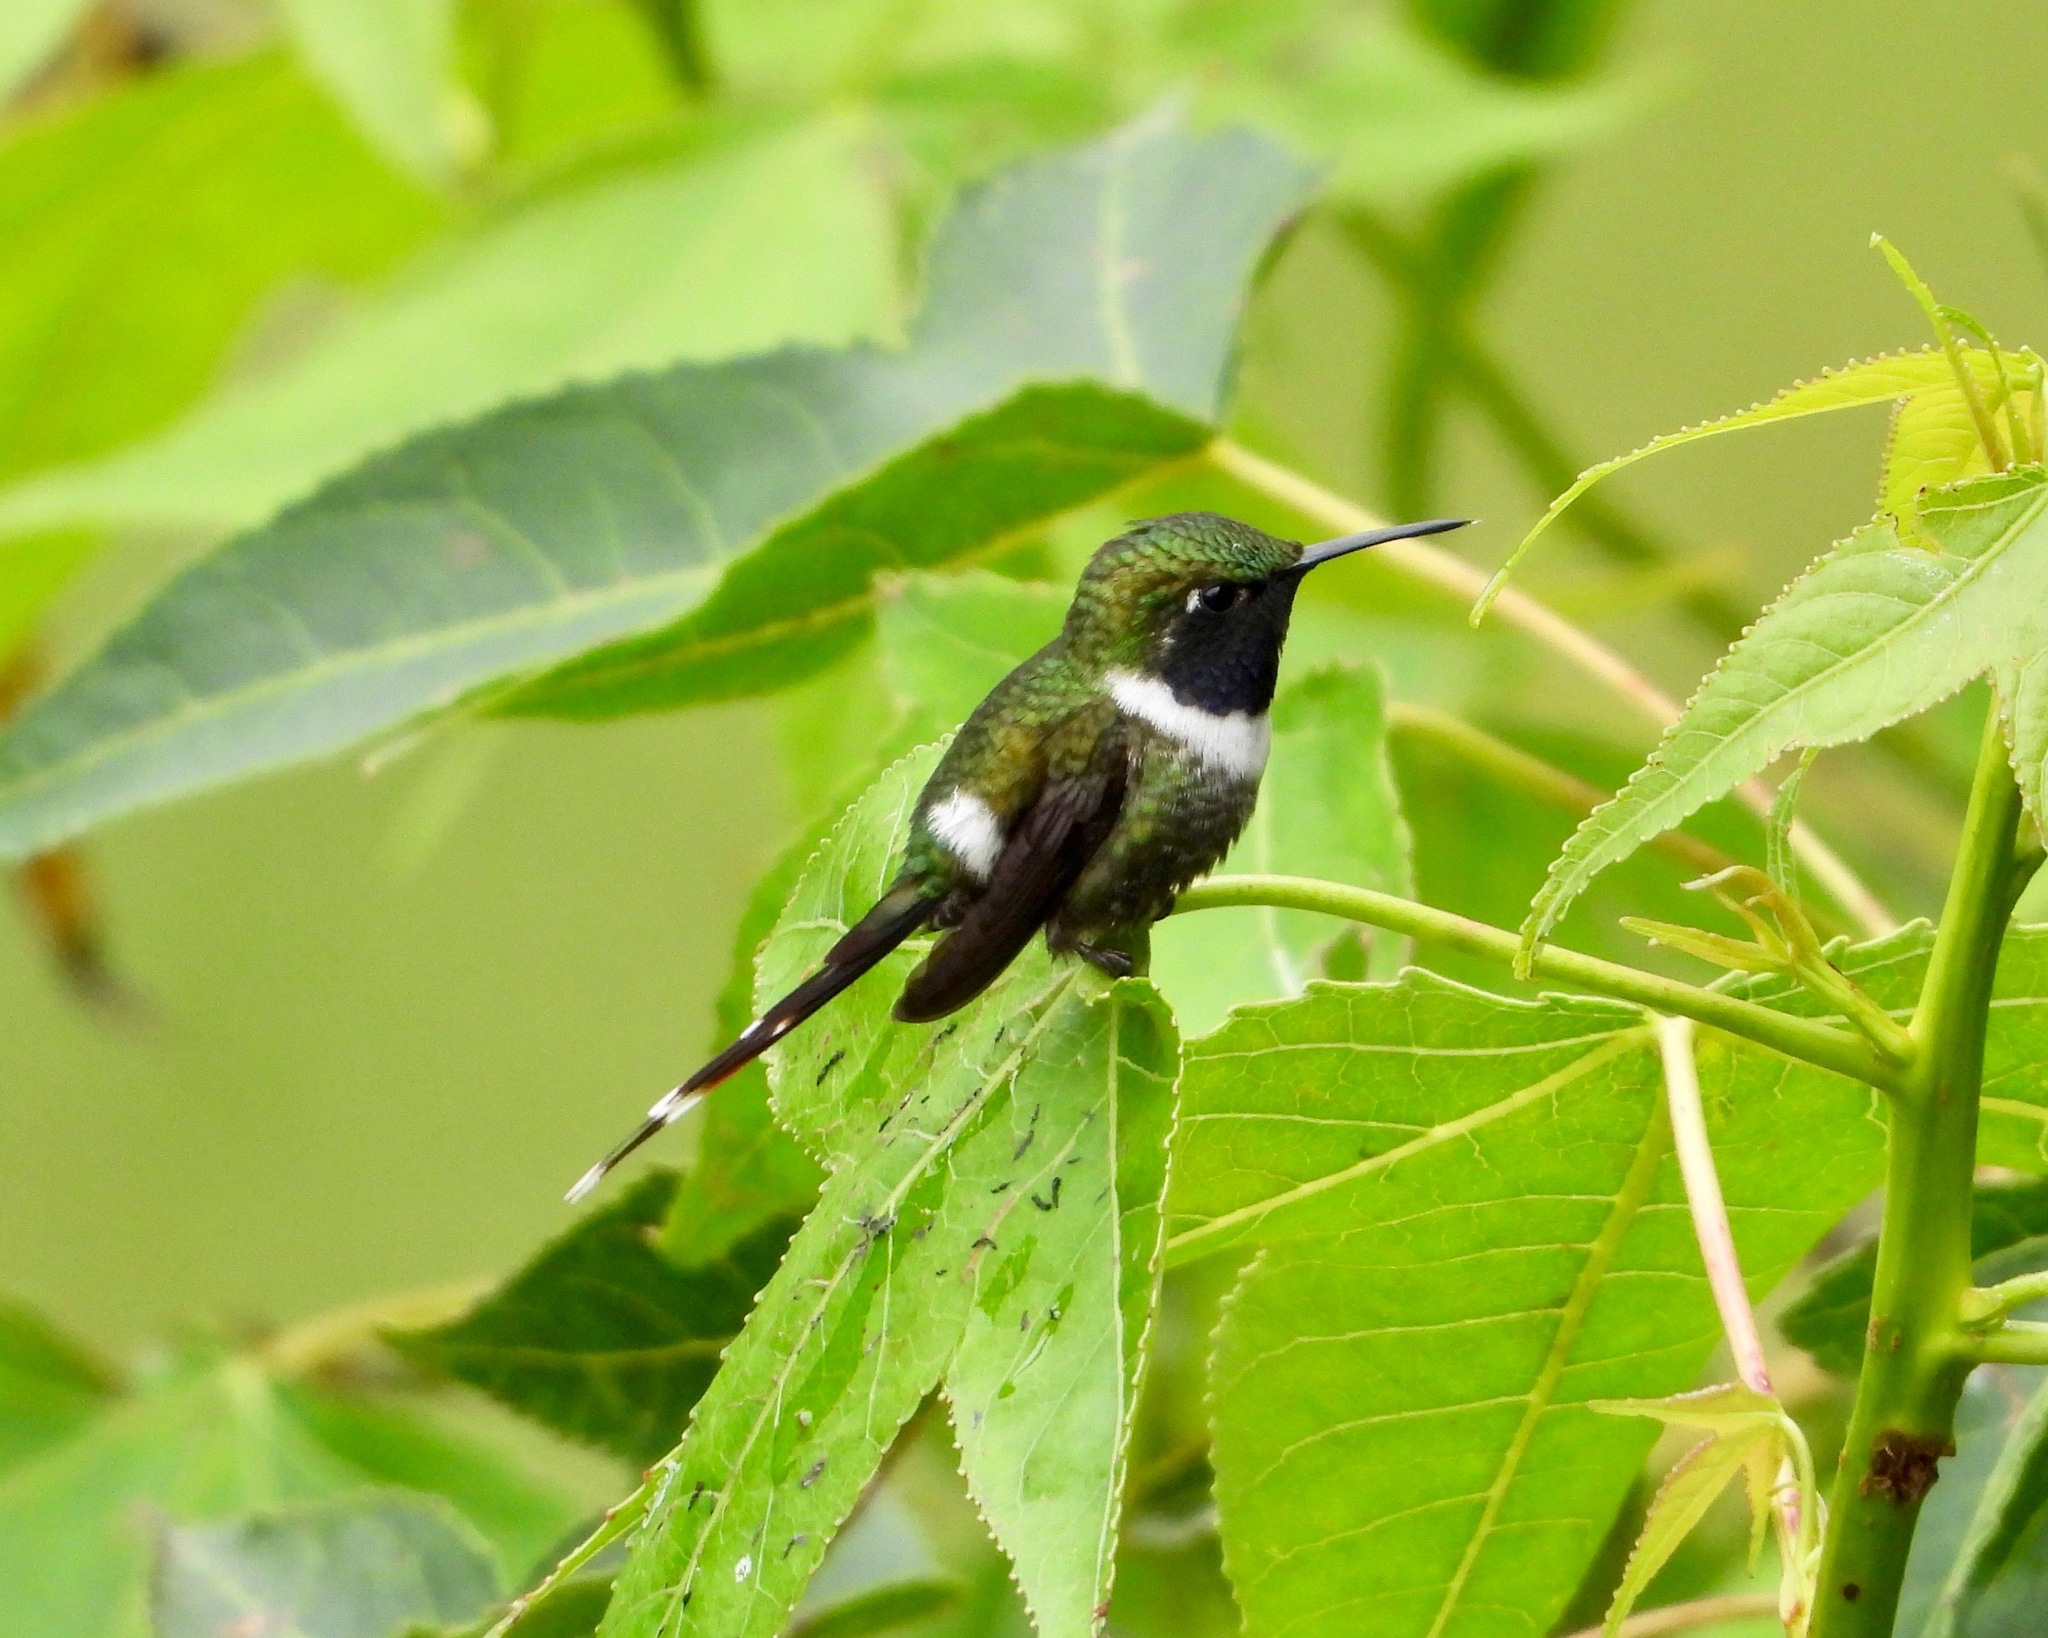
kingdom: Animalia
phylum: Chordata
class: Aves
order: Apodiformes
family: Trochilidae
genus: Tilmatura
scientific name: Tilmatura dupontii
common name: Sparkling-tailed woodstar
